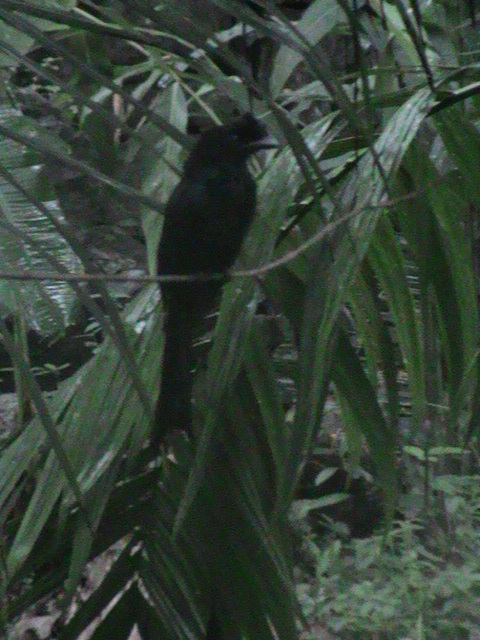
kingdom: Animalia
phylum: Chordata
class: Aves
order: Passeriformes
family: Dicruridae
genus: Dicrurus
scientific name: Dicrurus paradiseus
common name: Greater racket-tailed drongo
